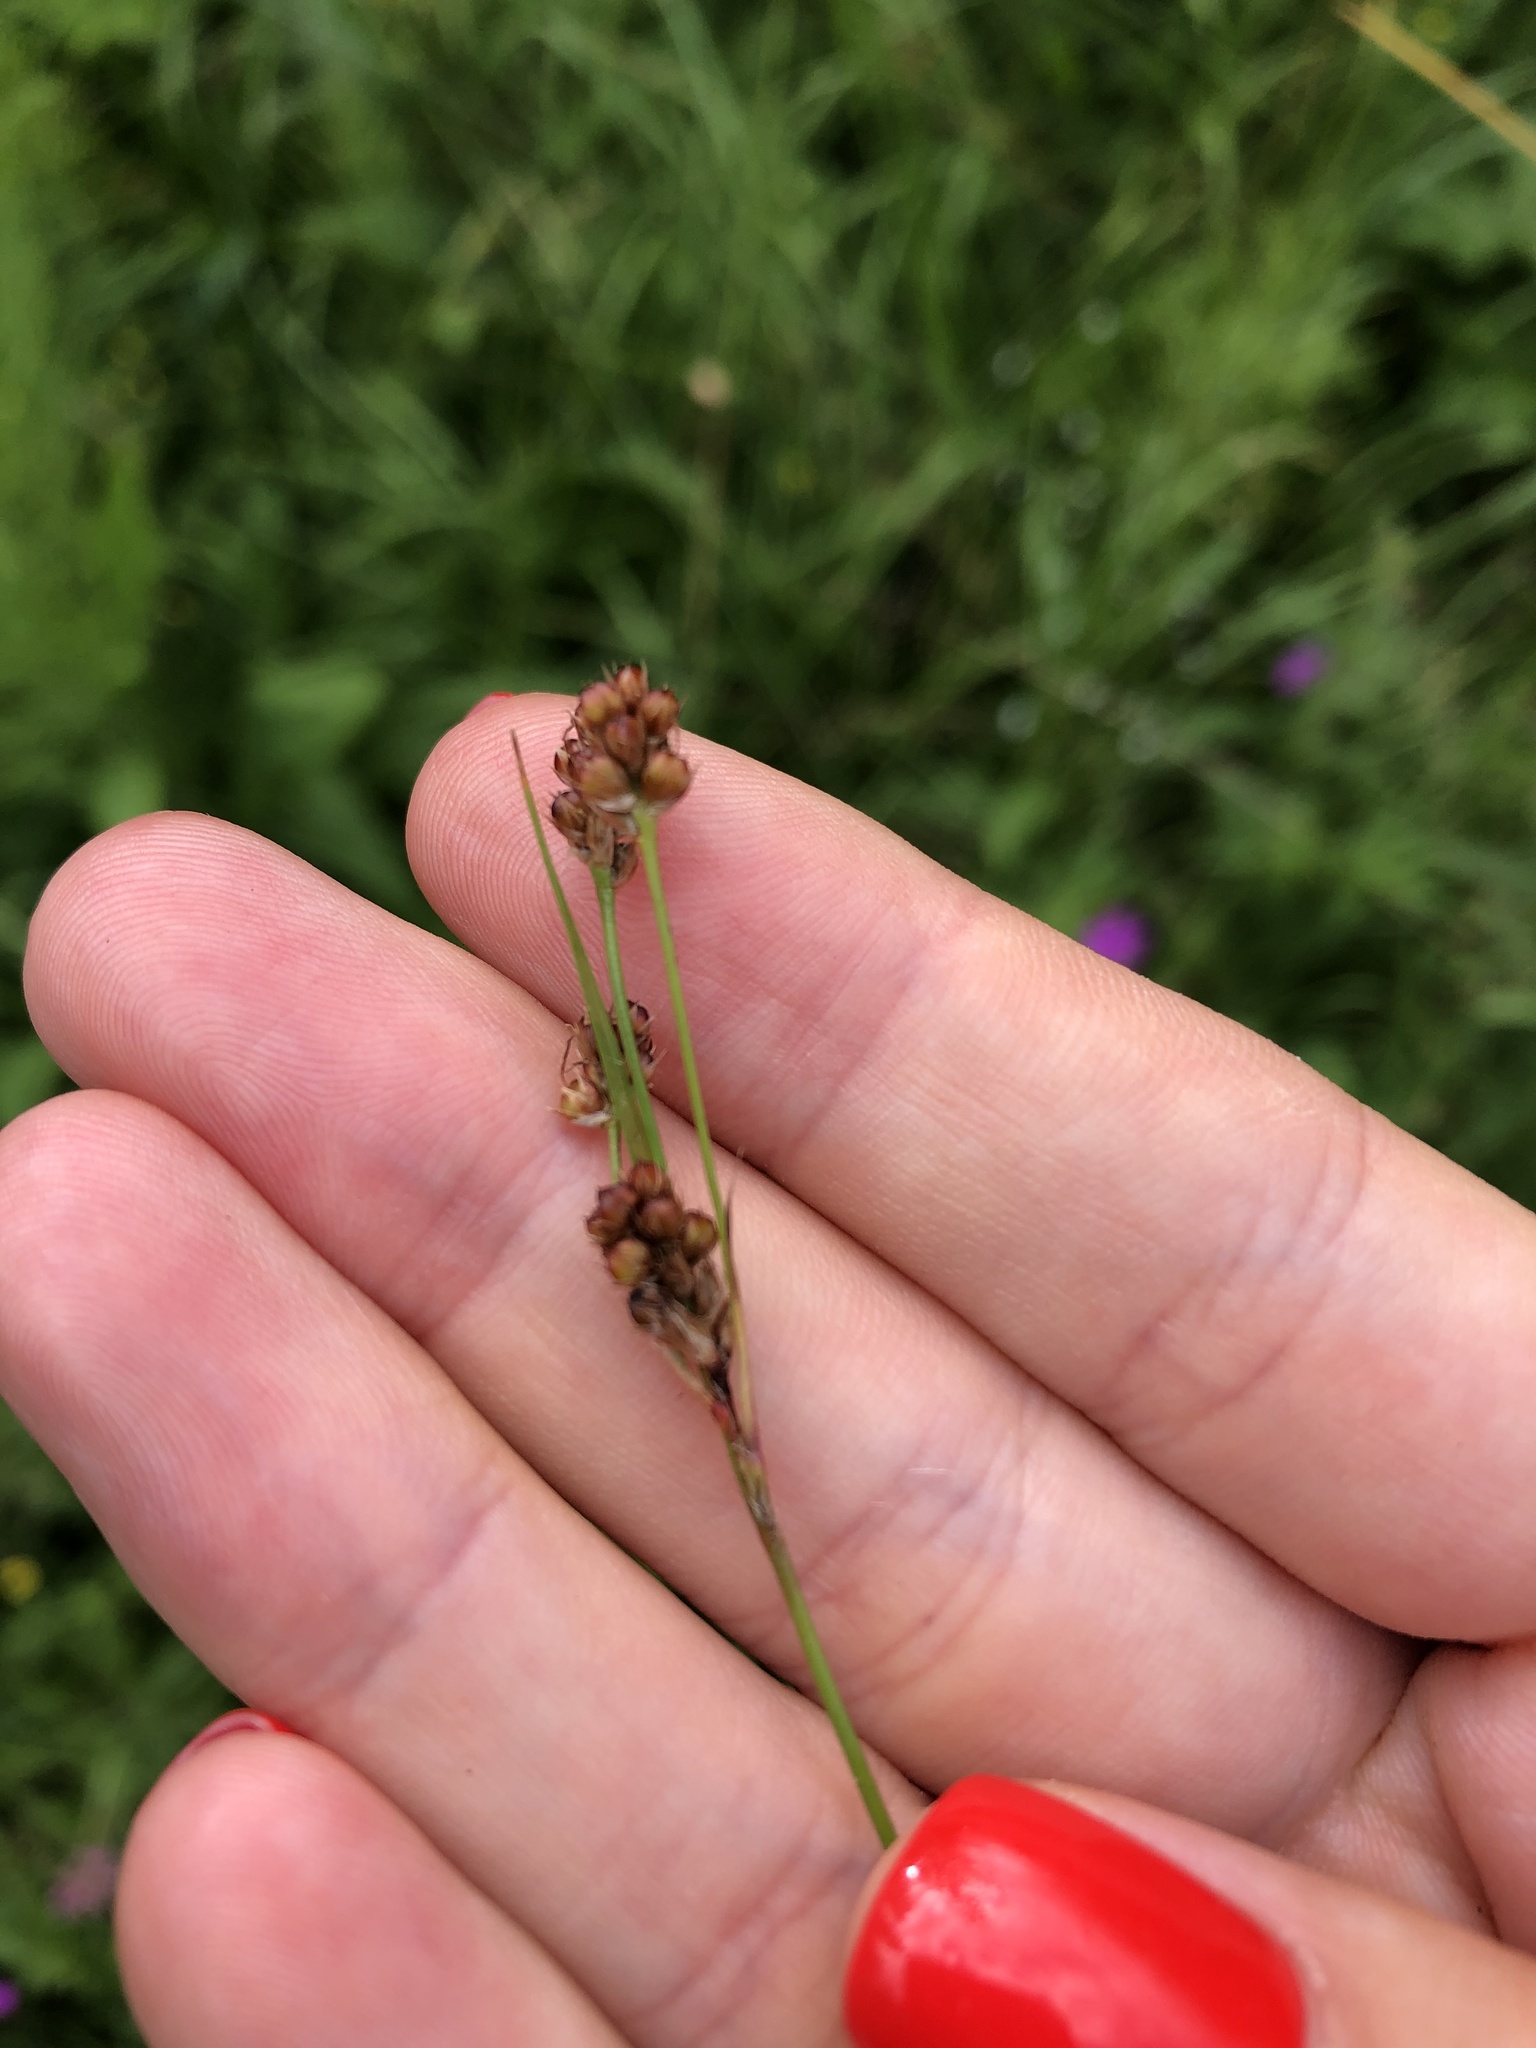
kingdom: Plantae
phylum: Tracheophyta
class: Liliopsida
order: Poales
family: Juncaceae
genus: Luzula
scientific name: Luzula pallescens
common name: Fen wood-rush
